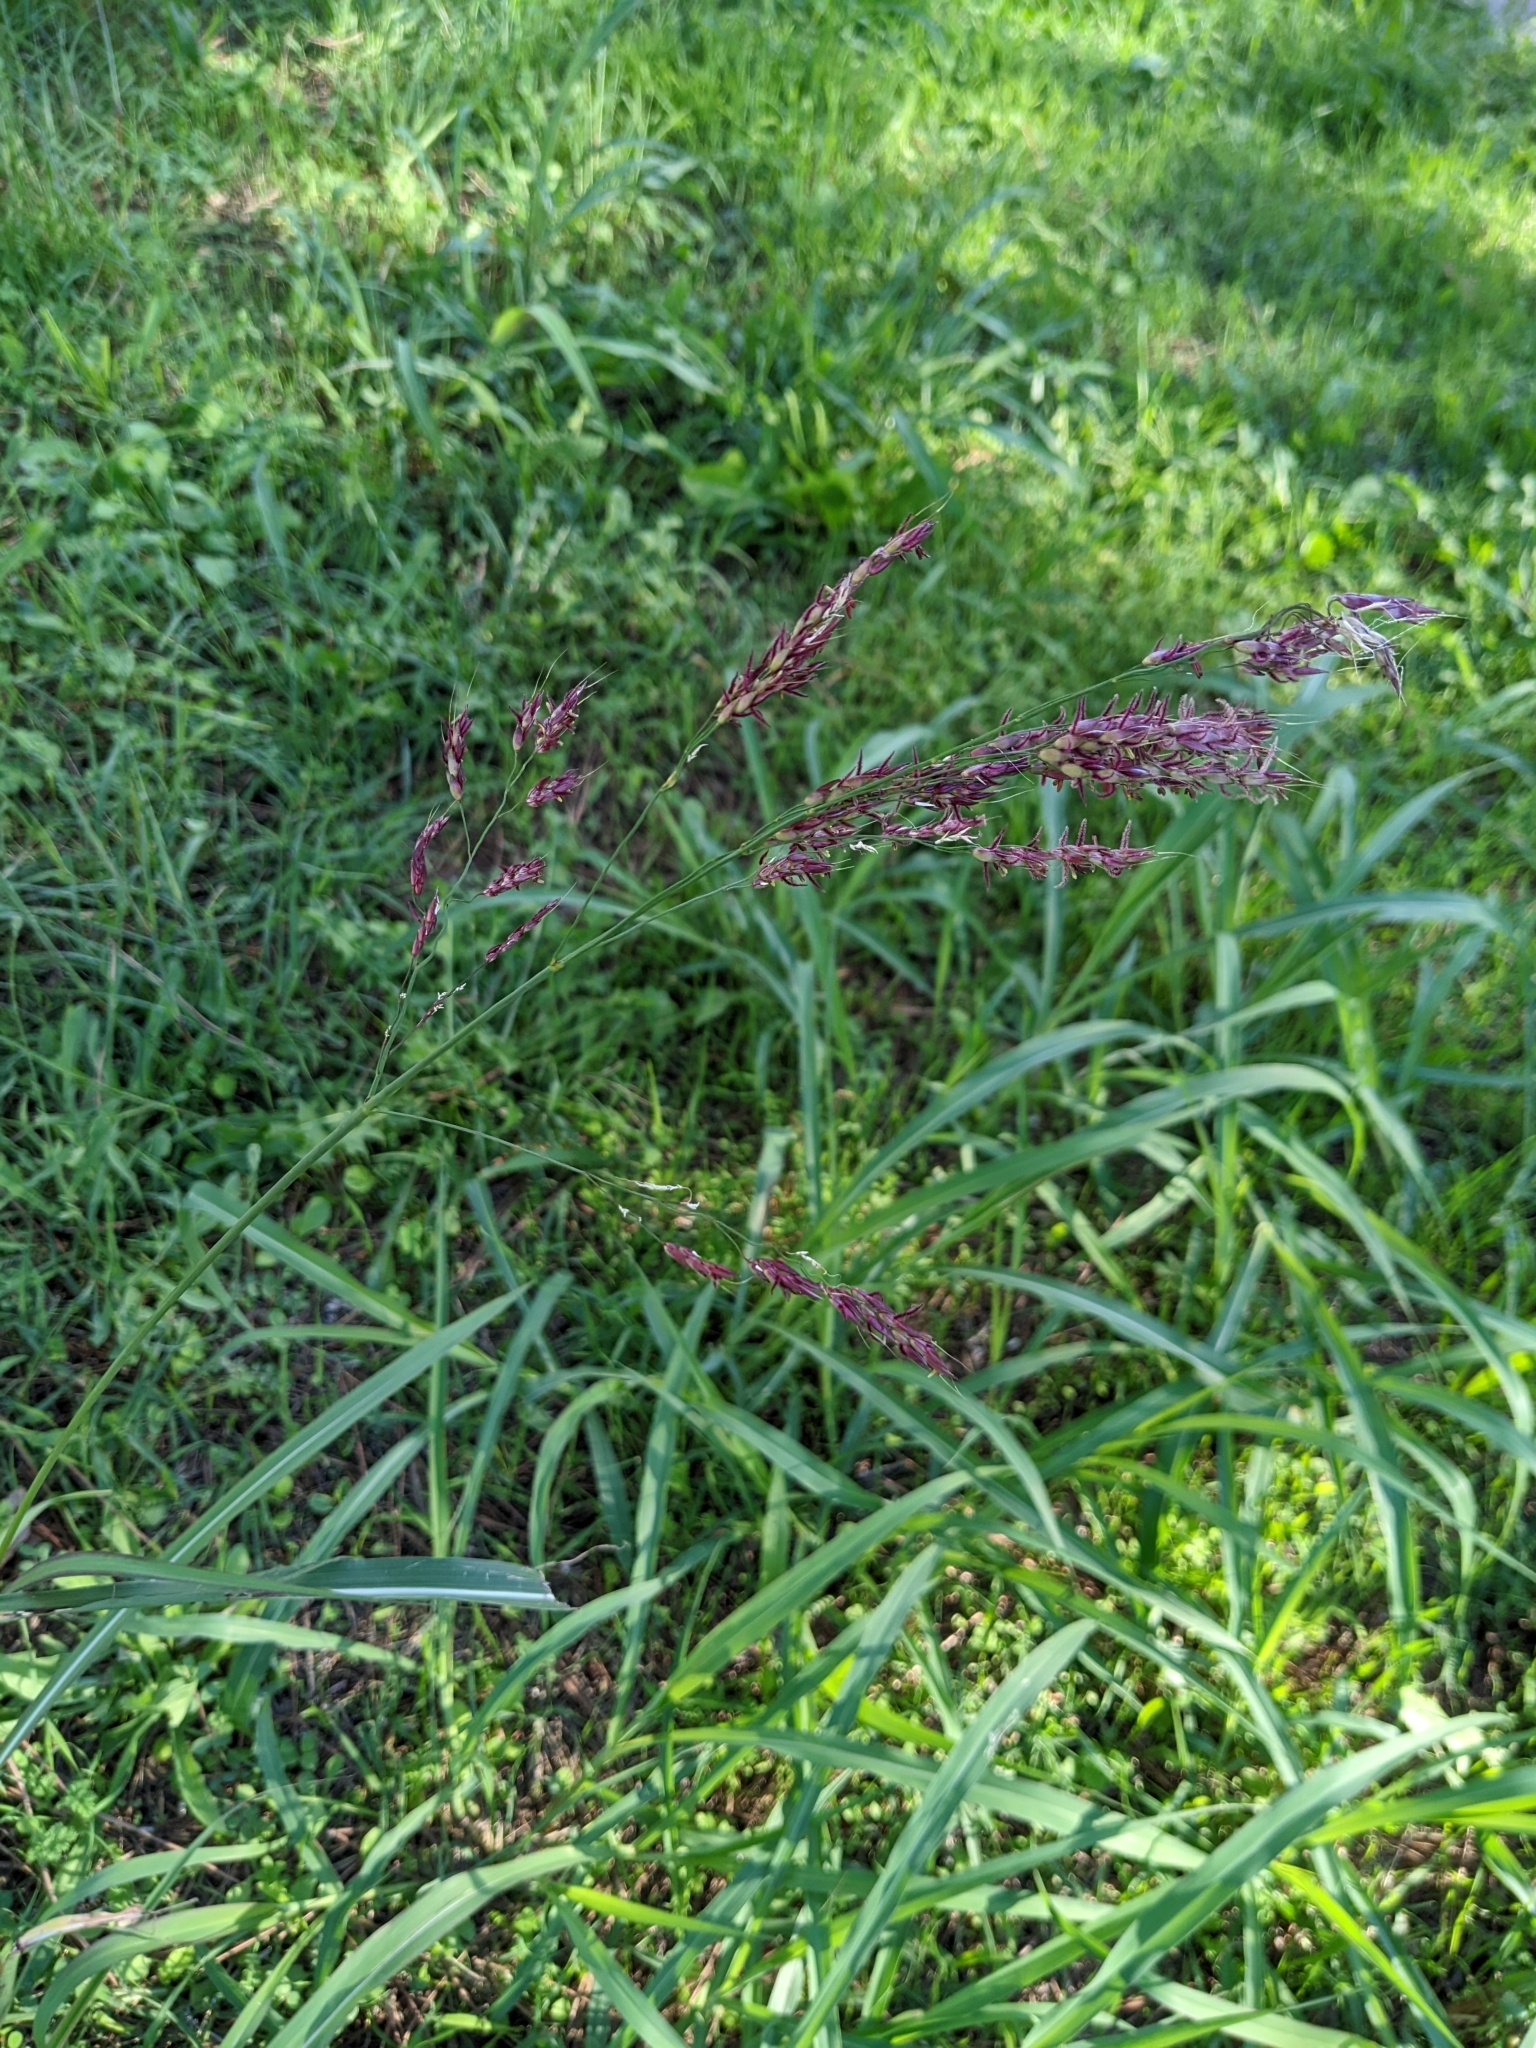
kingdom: Plantae
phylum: Tracheophyta
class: Liliopsida
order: Poales
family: Poaceae
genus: Sorghum
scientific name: Sorghum halepense
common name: Johnson-grass
